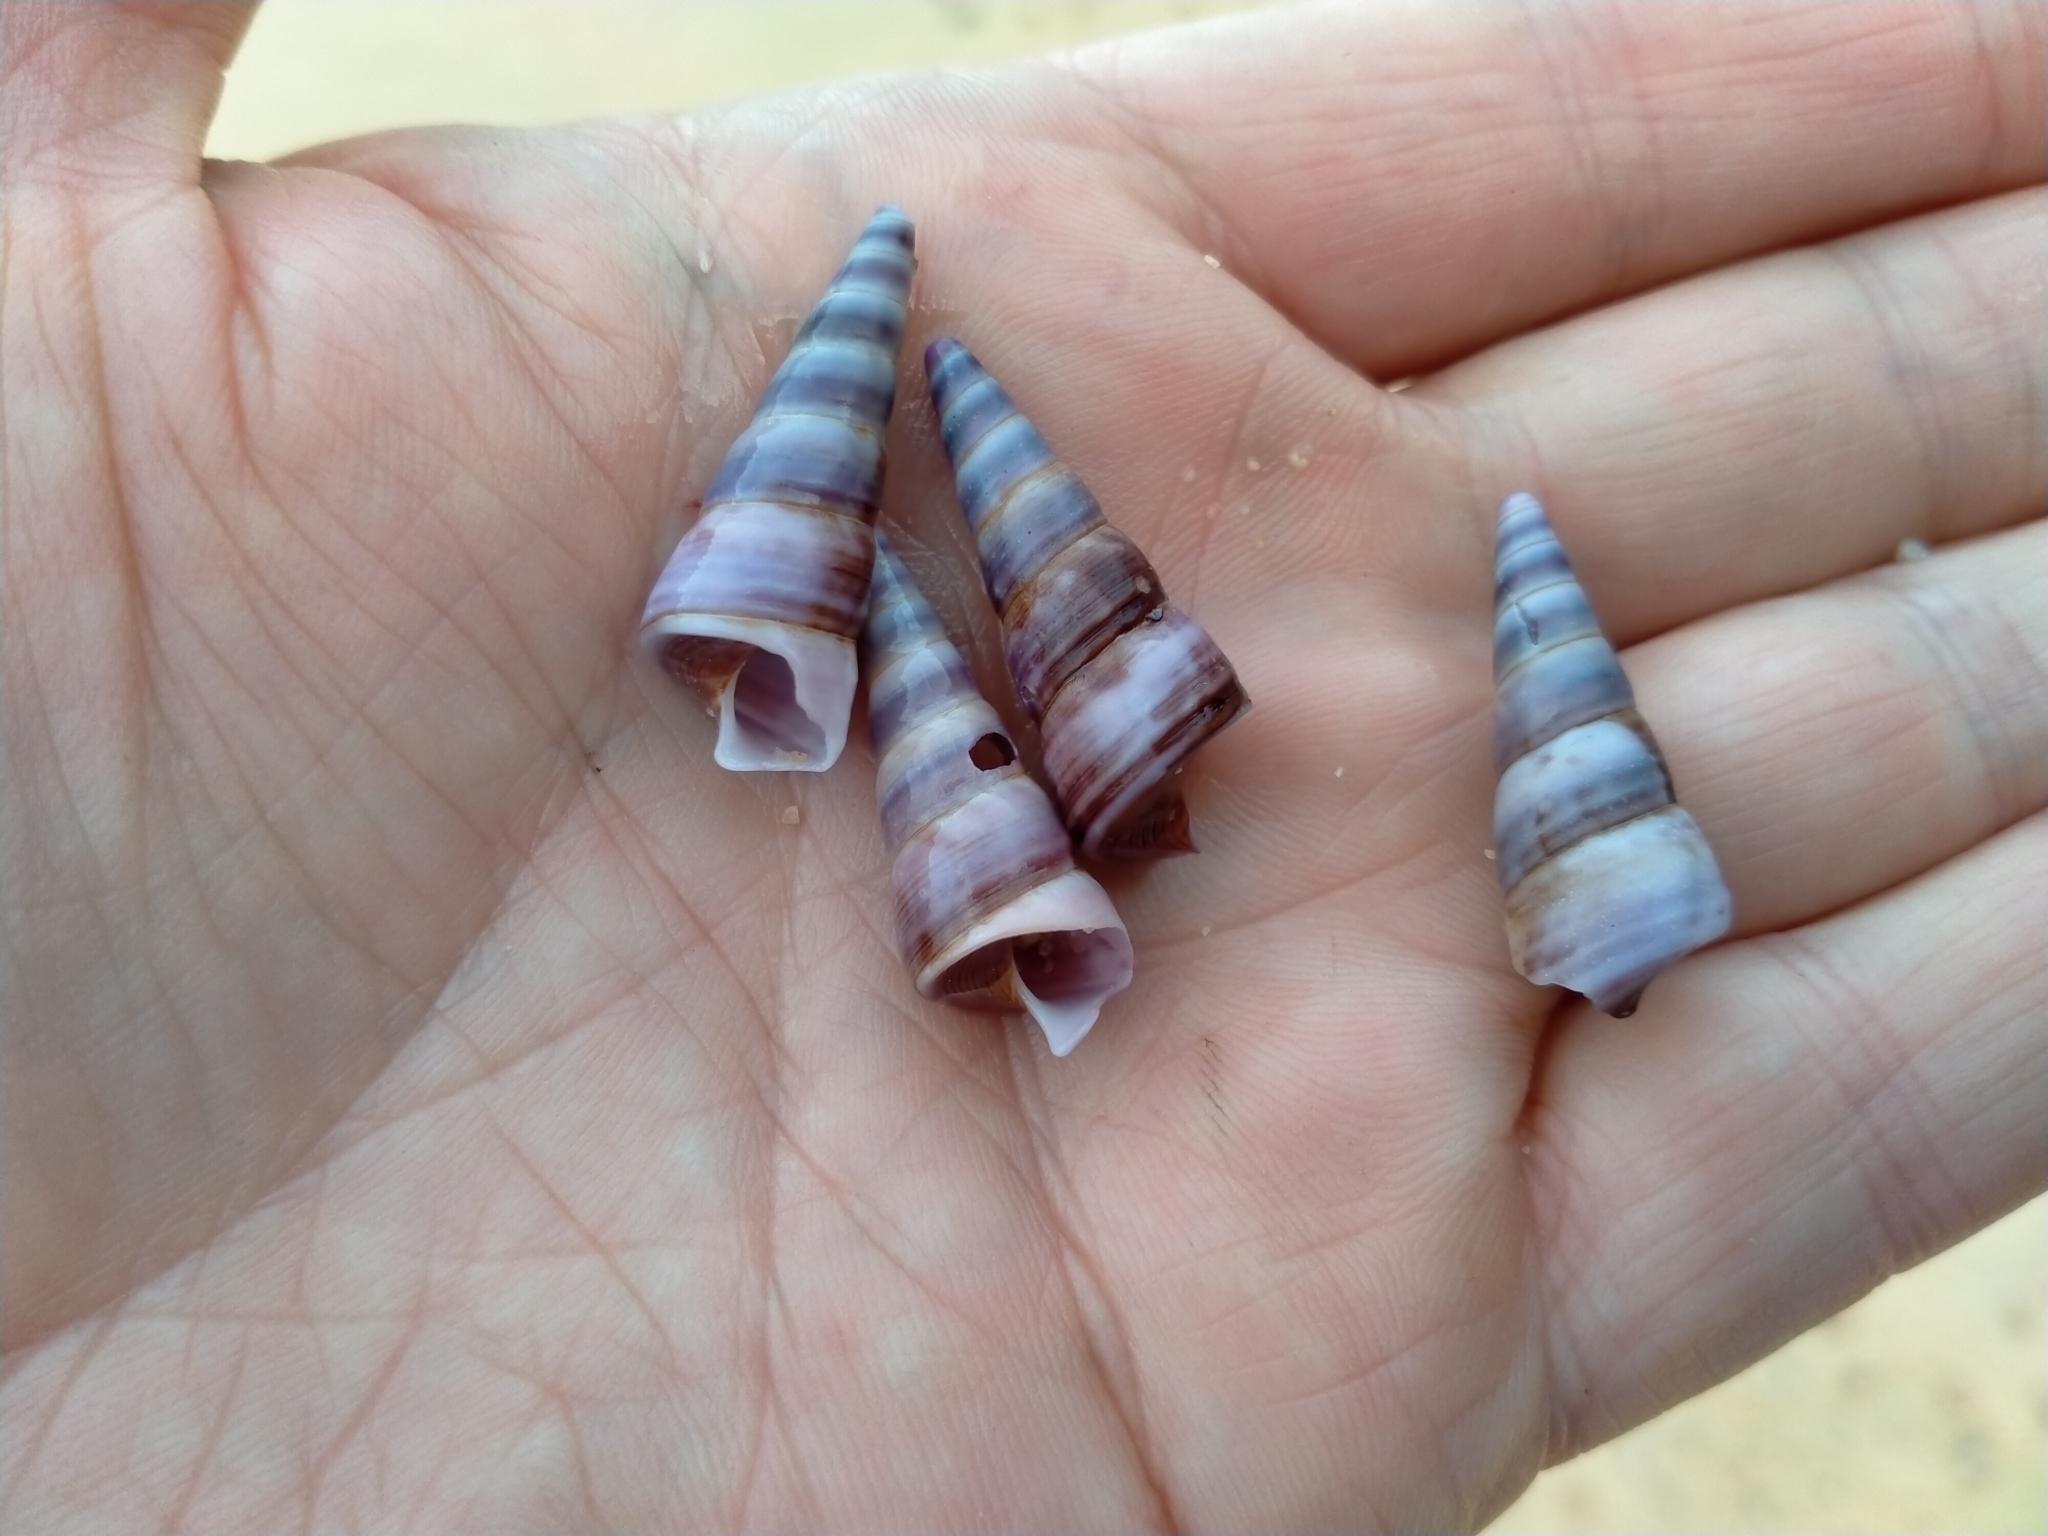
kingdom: Animalia
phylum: Mollusca
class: Gastropoda
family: Turritellidae
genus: Maoricolpus
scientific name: Maoricolpus roseus
